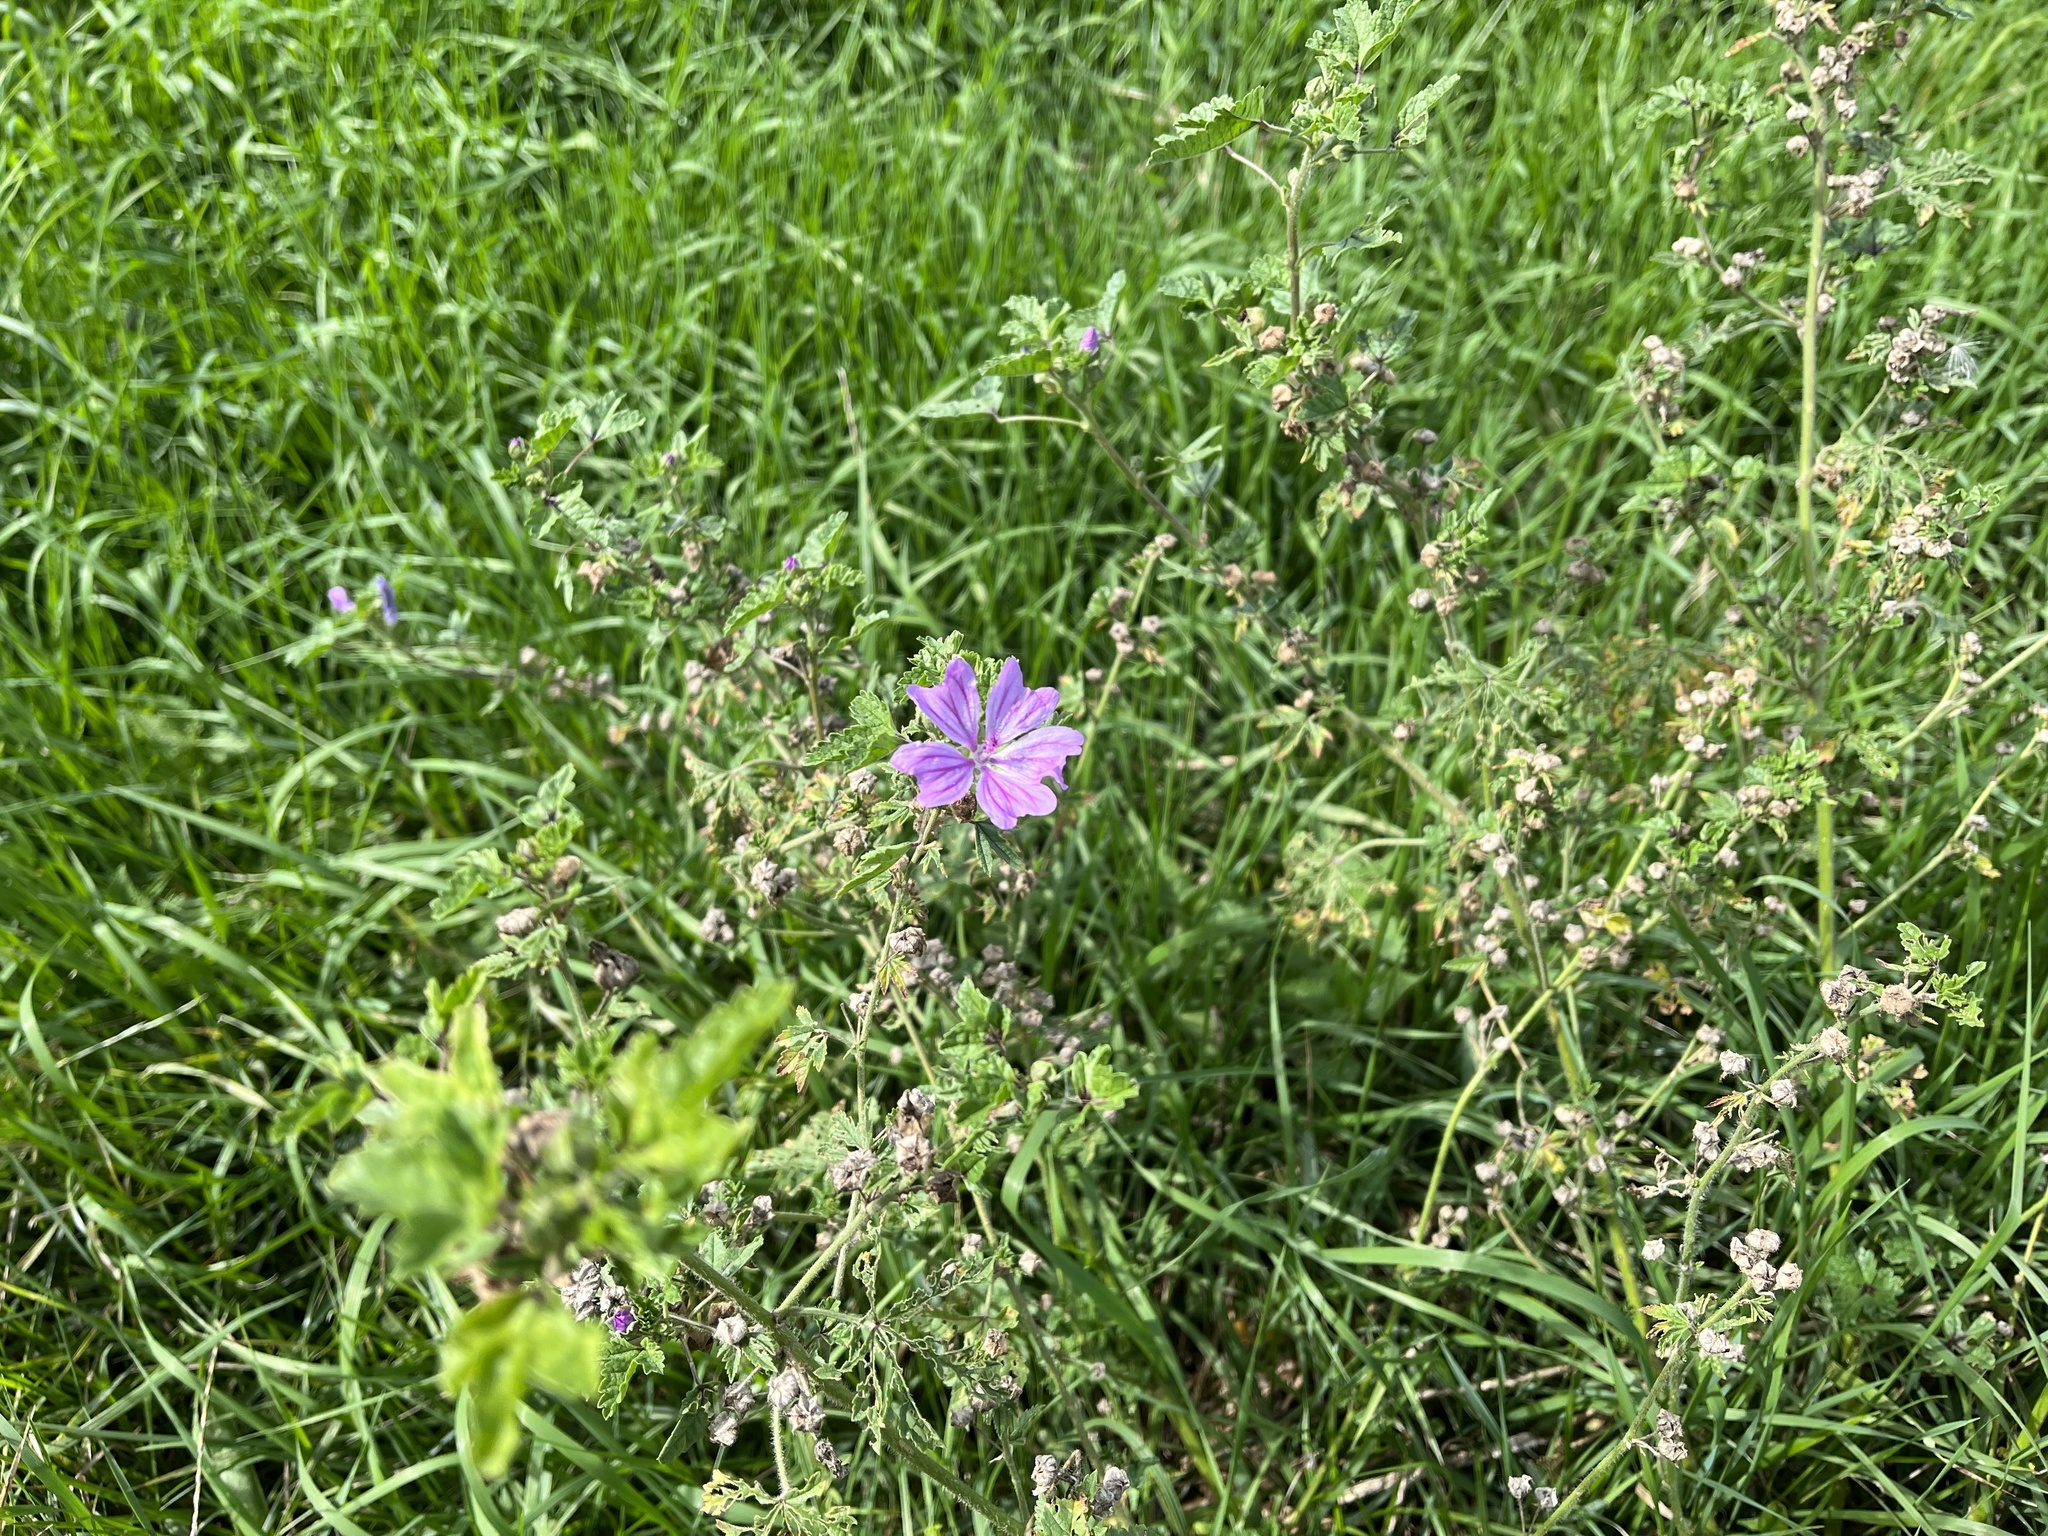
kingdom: Plantae
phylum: Tracheophyta
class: Magnoliopsida
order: Malvales
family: Malvaceae
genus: Malva
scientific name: Malva sylvestris
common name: Common mallow
